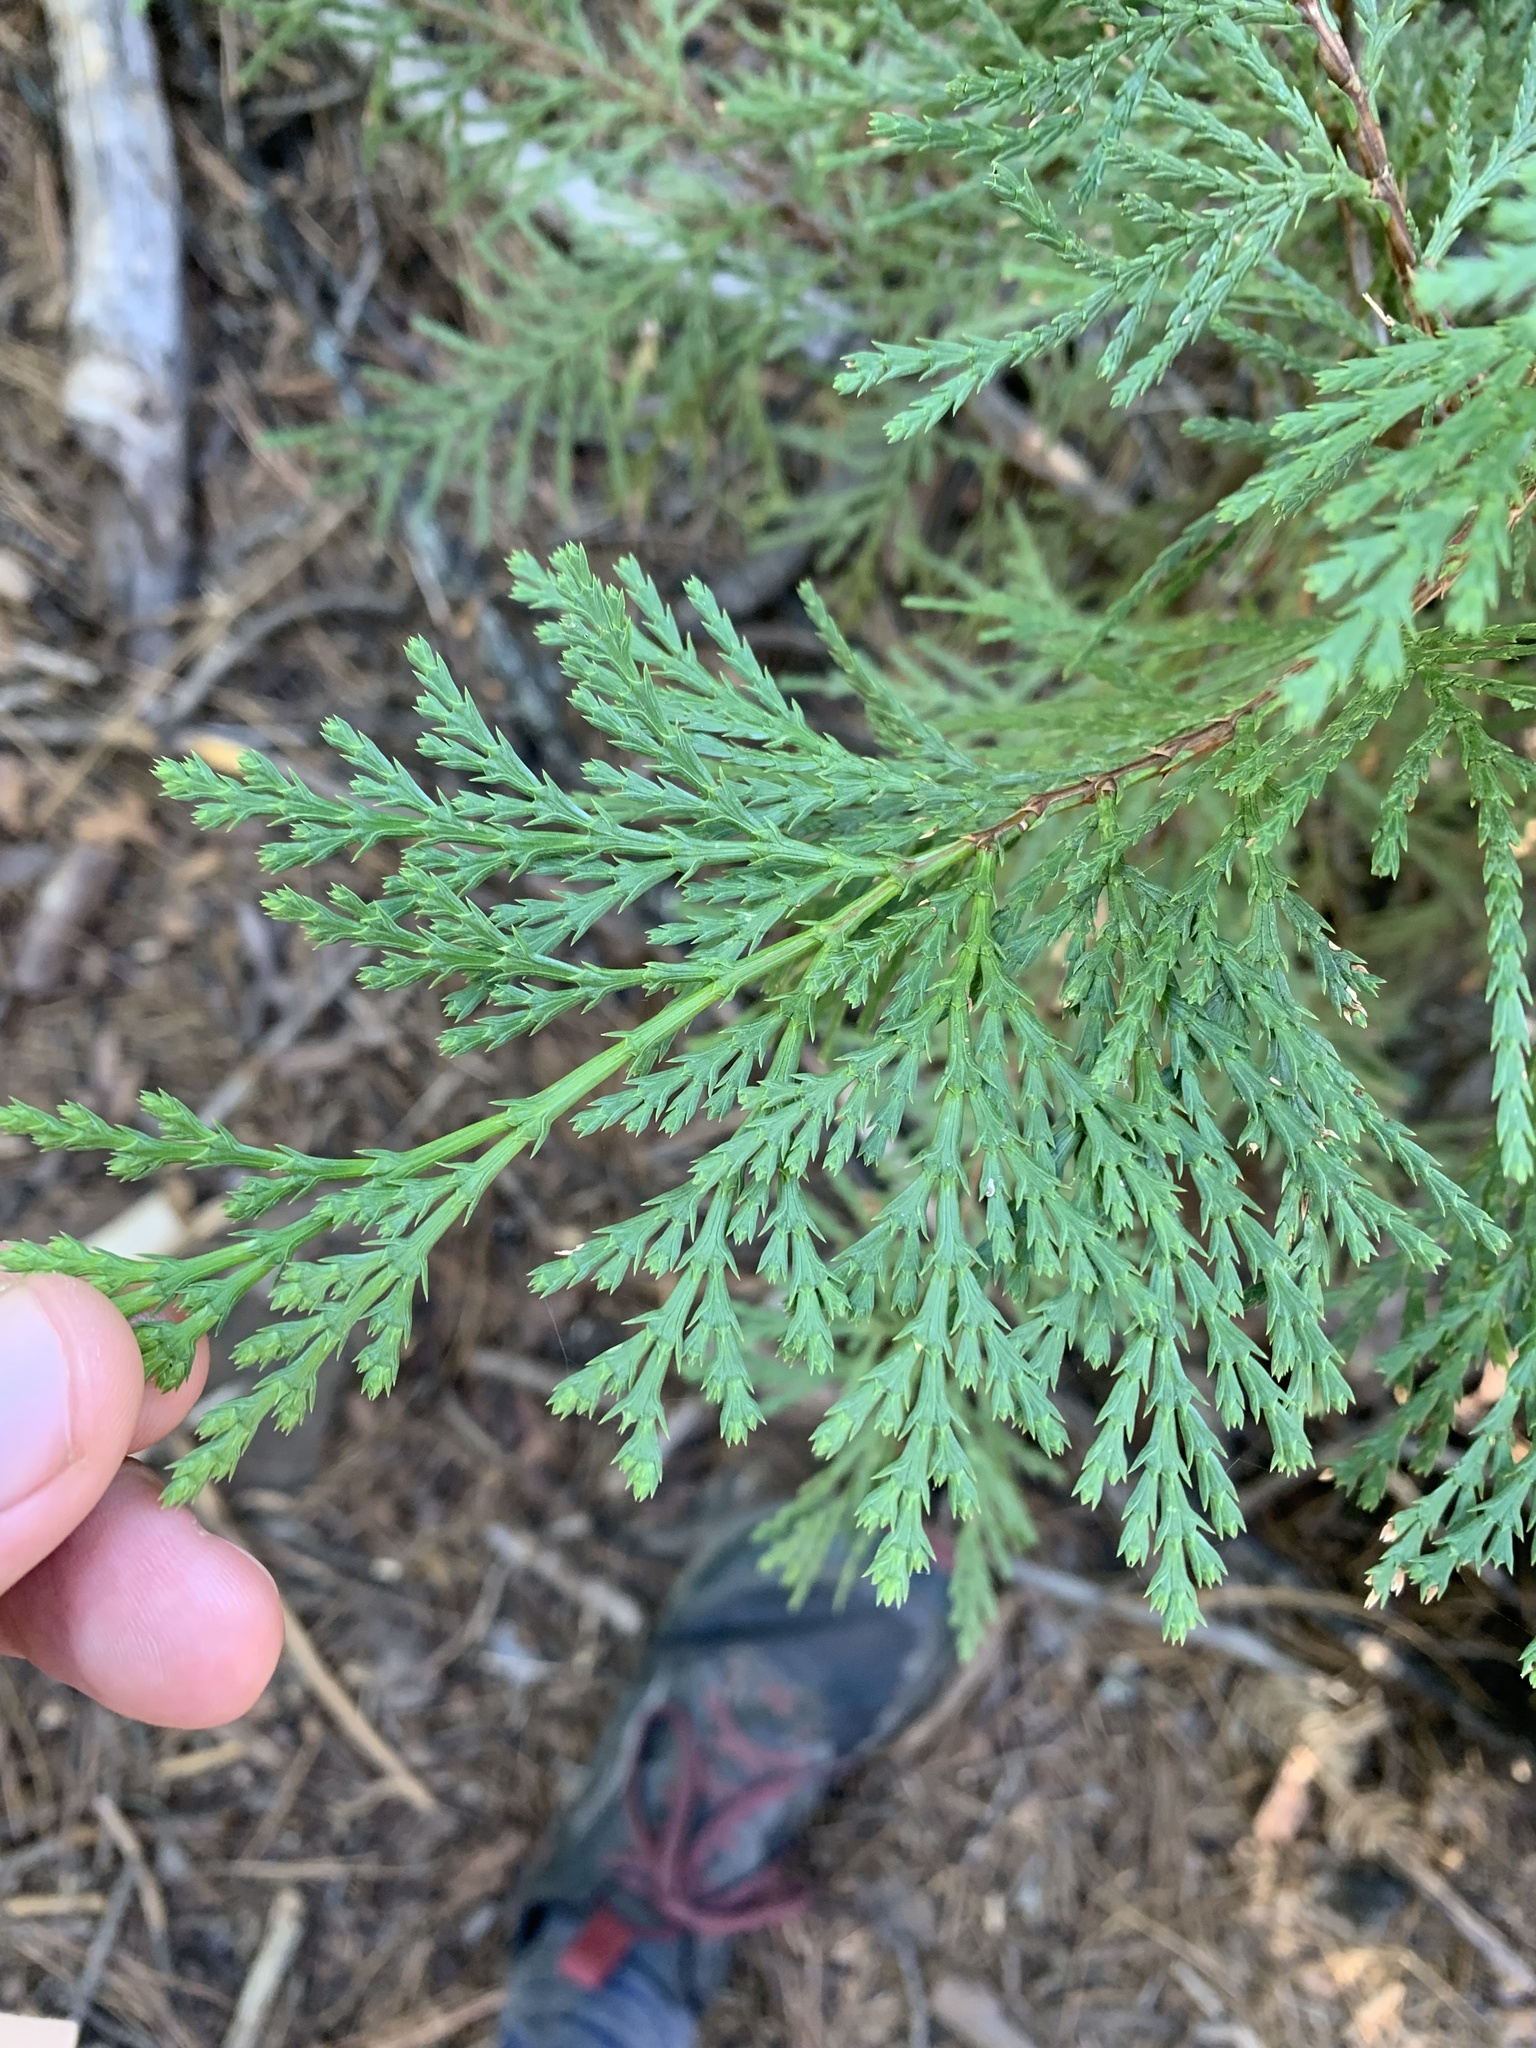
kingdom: Plantae
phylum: Tracheophyta
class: Pinopsida
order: Pinales
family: Cupressaceae
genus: Calocedrus
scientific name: Calocedrus decurrens
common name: Californian incense-cedar
